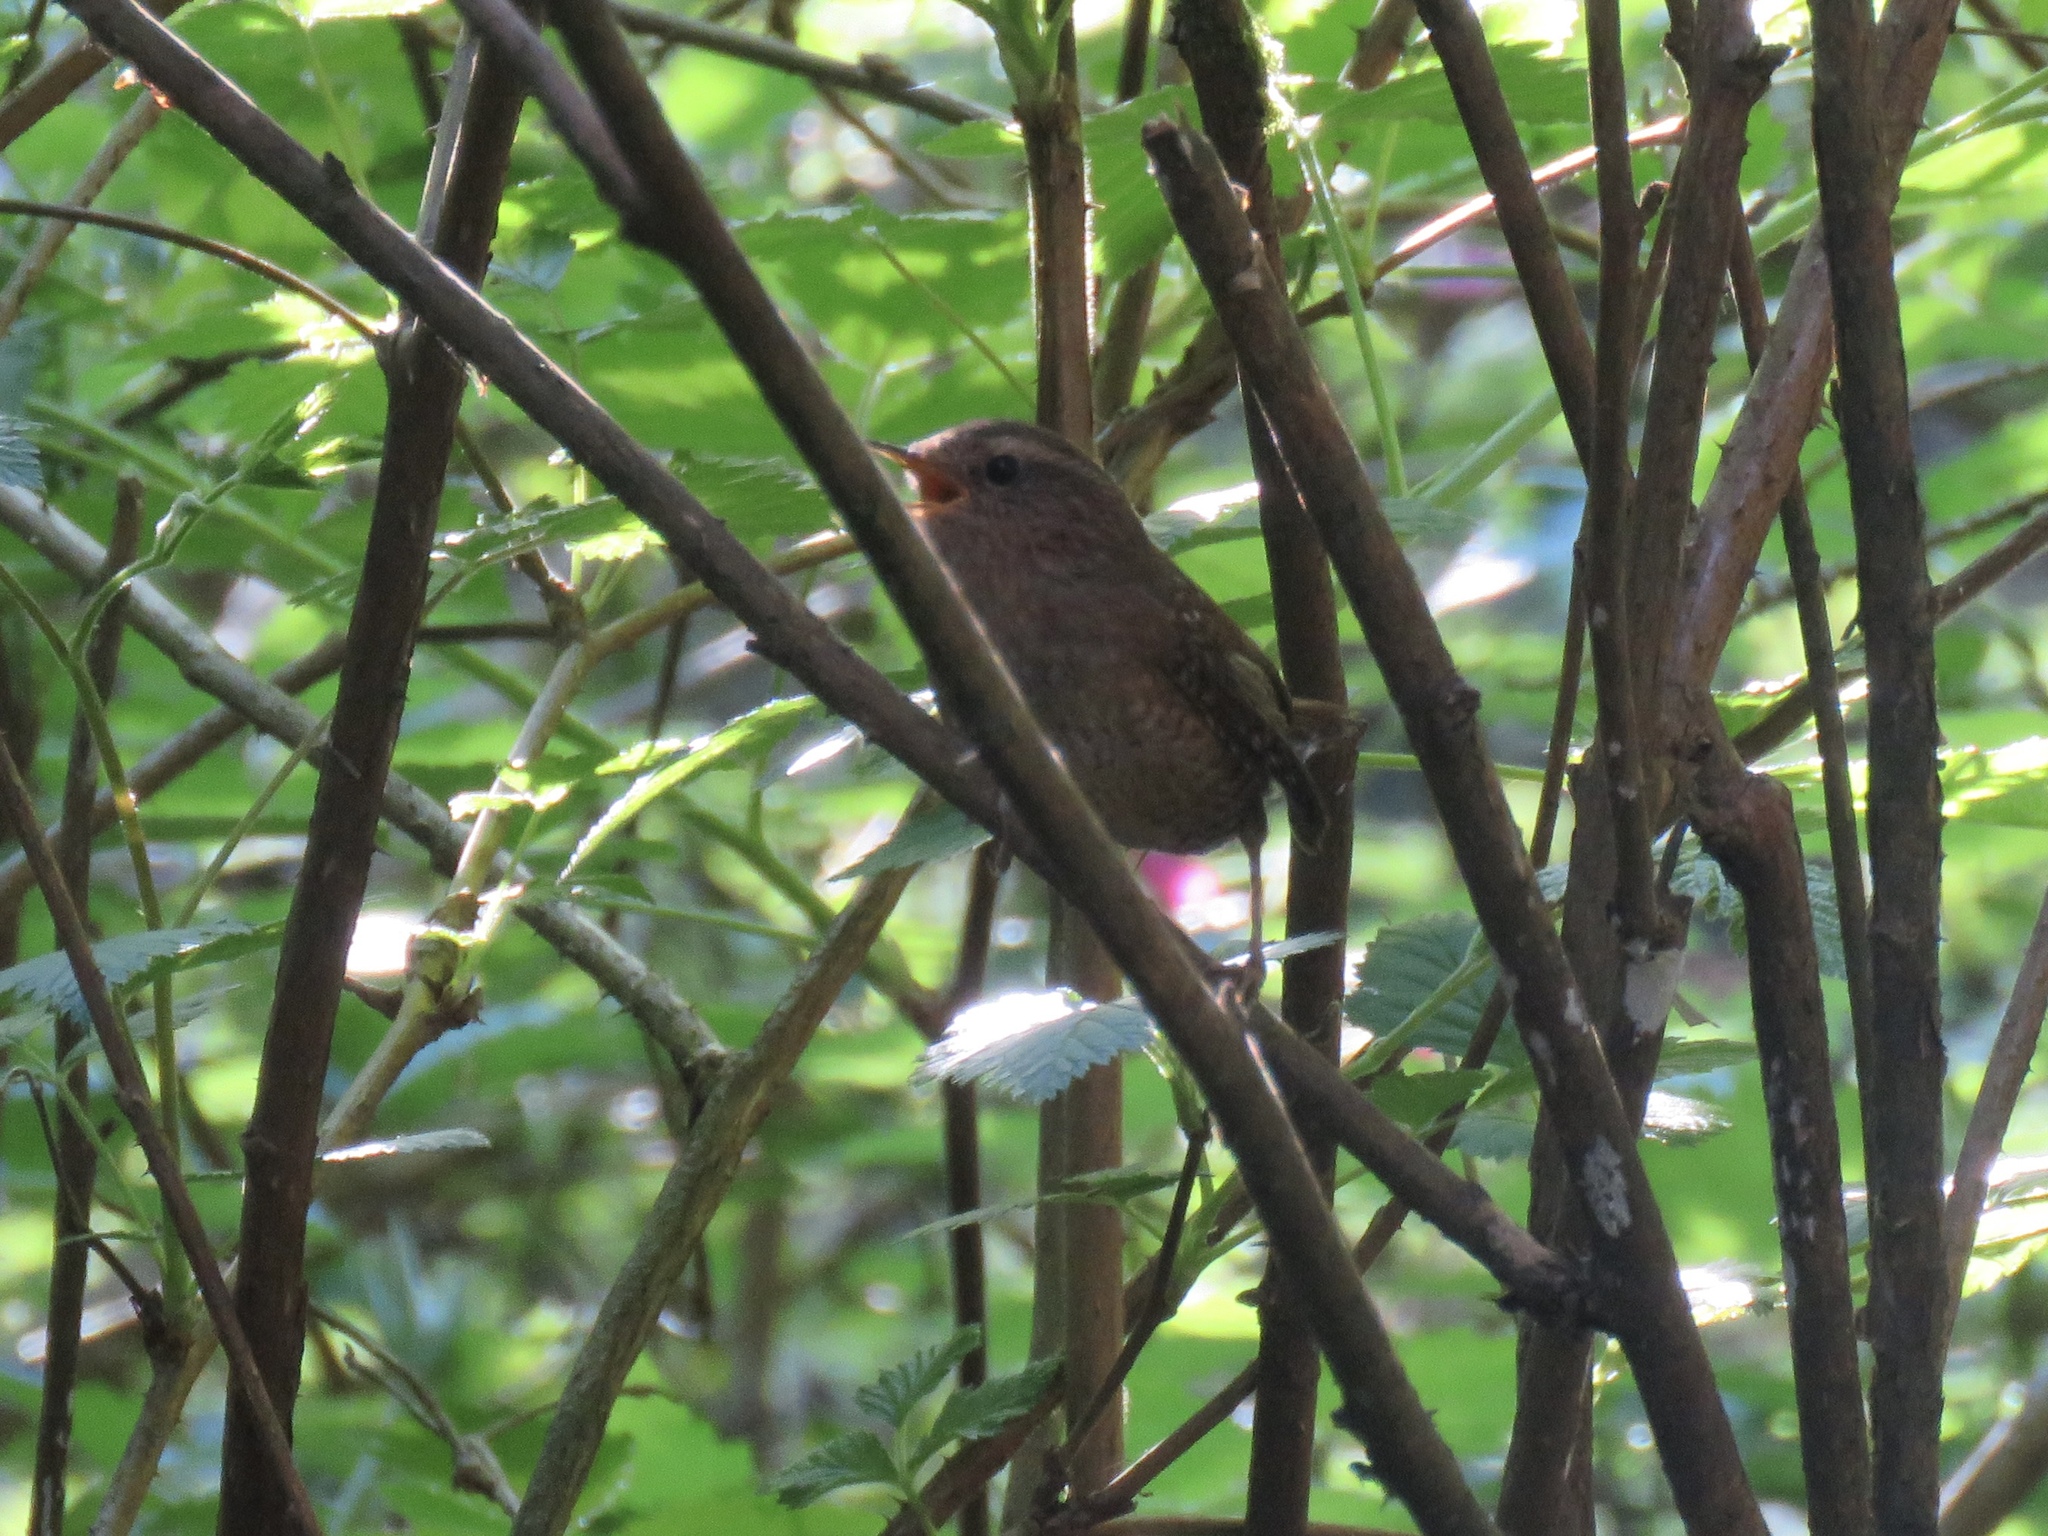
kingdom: Animalia
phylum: Chordata
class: Aves
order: Passeriformes
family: Troglodytidae
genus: Troglodytes
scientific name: Troglodytes pacificus
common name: Pacific wren
